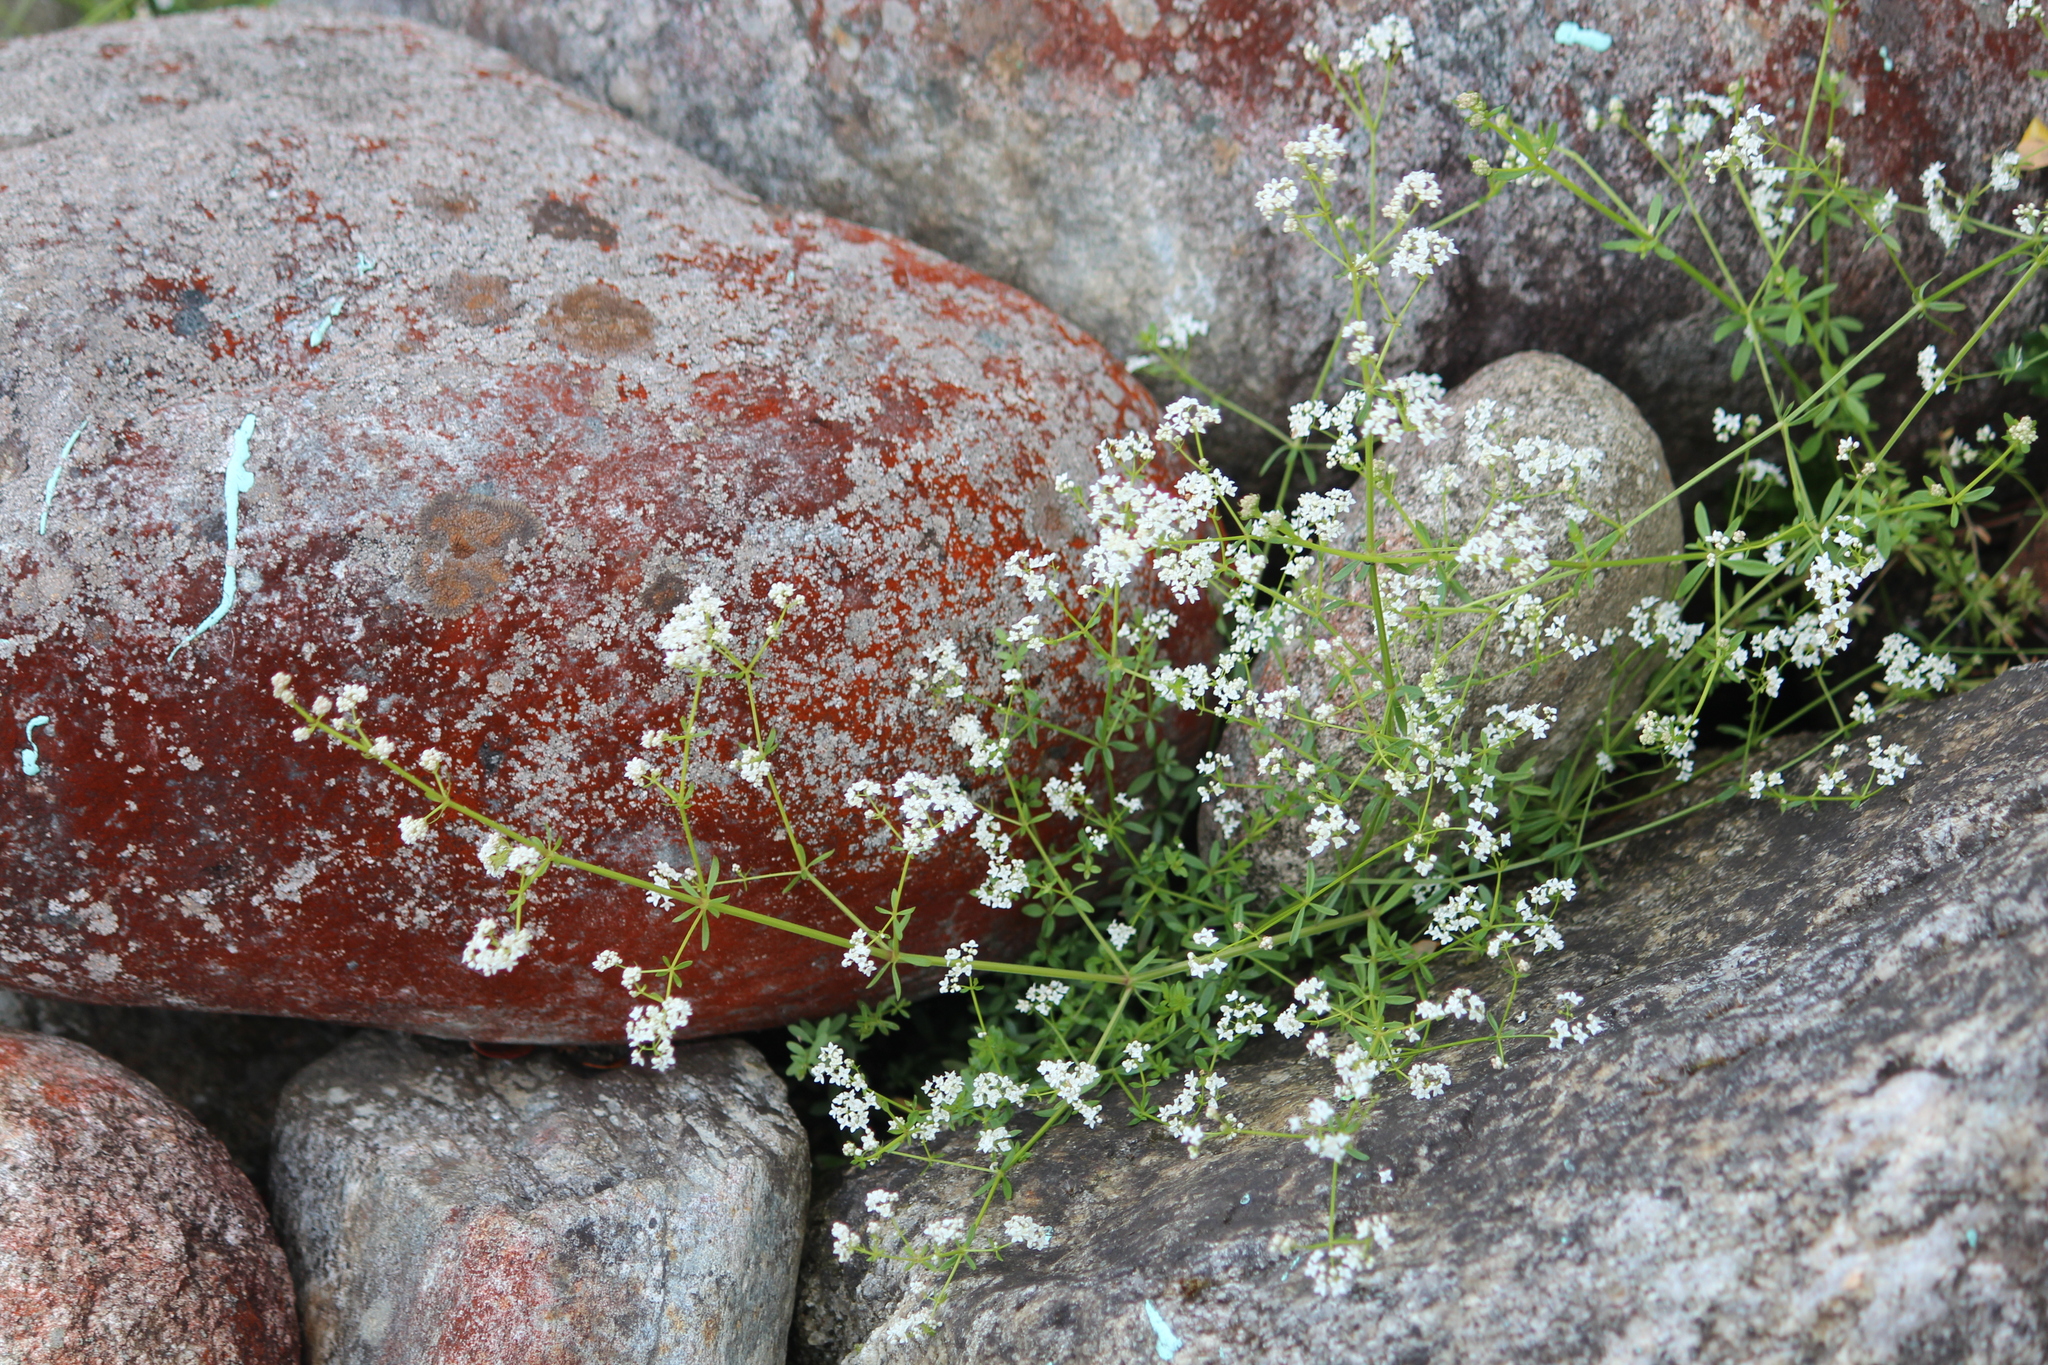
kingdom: Plantae
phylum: Tracheophyta
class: Magnoliopsida
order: Gentianales
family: Rubiaceae
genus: Galium
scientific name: Galium palustre
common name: Common marsh-bedstraw
